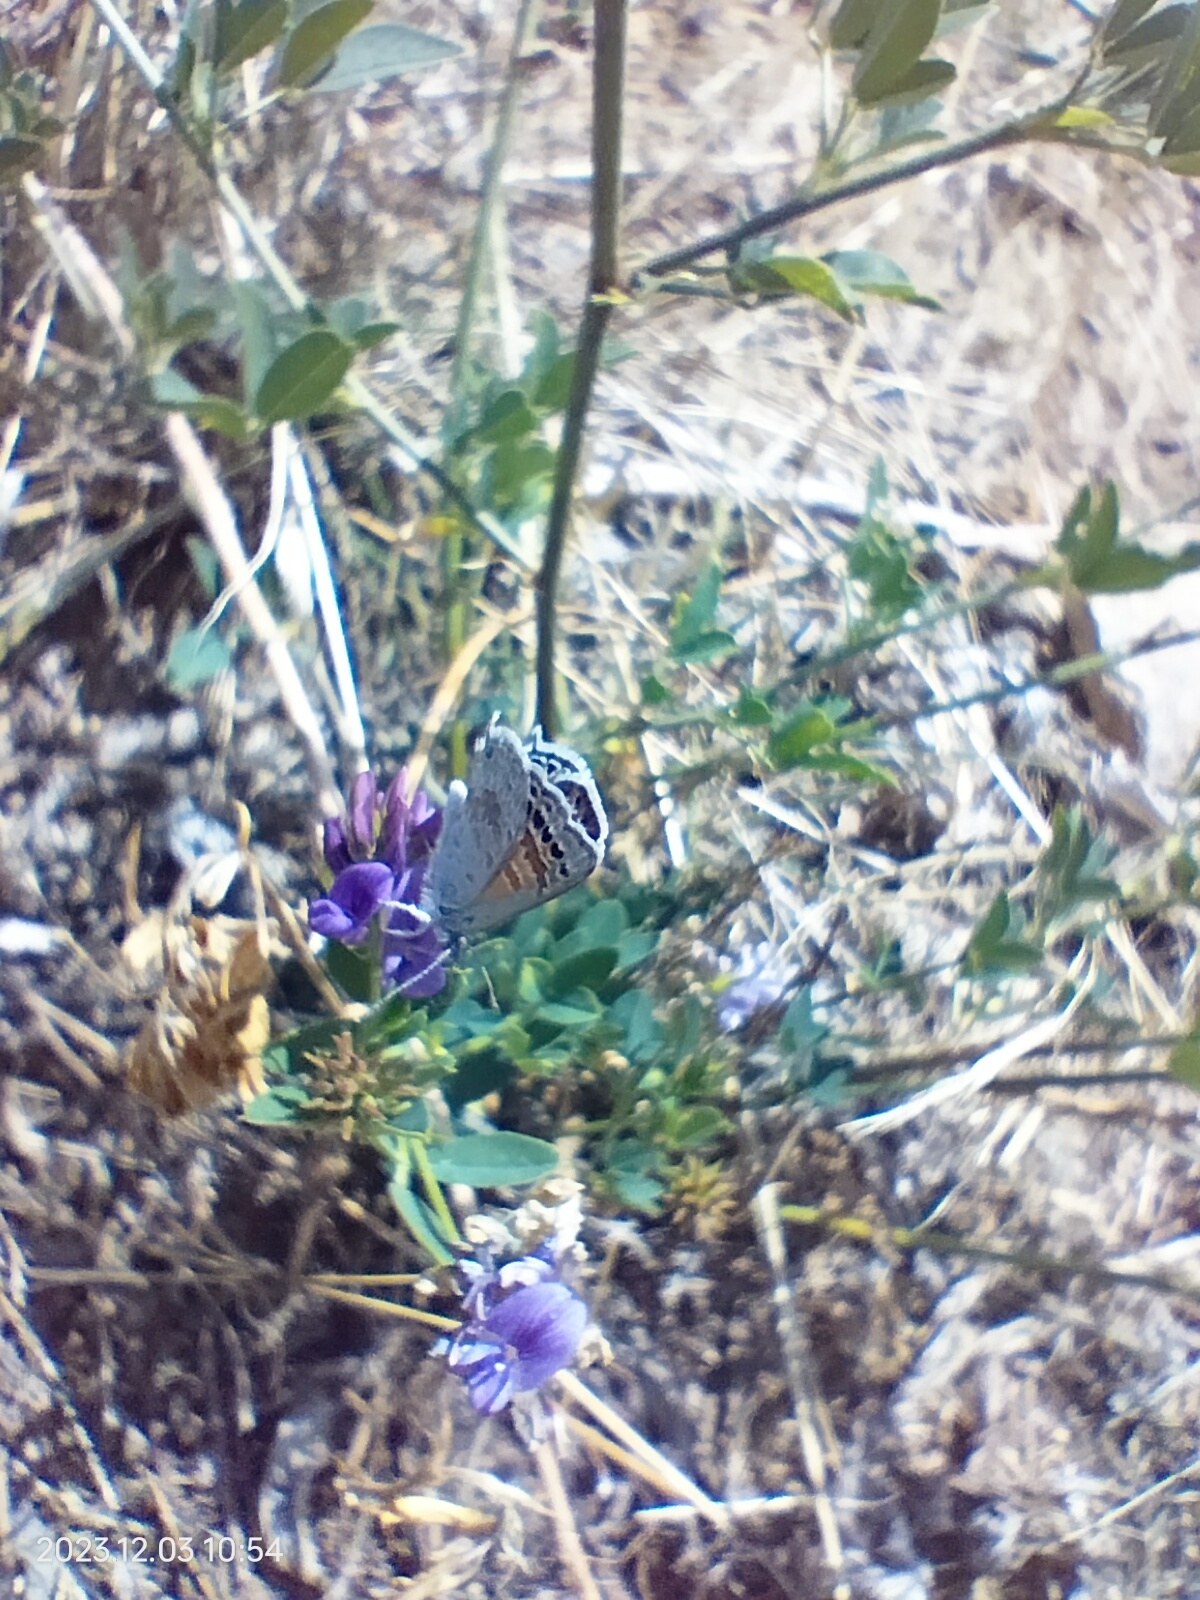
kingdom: Animalia
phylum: Arthropoda
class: Insecta
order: Lepidoptera
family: Lycaenidae
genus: Nabokovia
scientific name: Nabokovia
